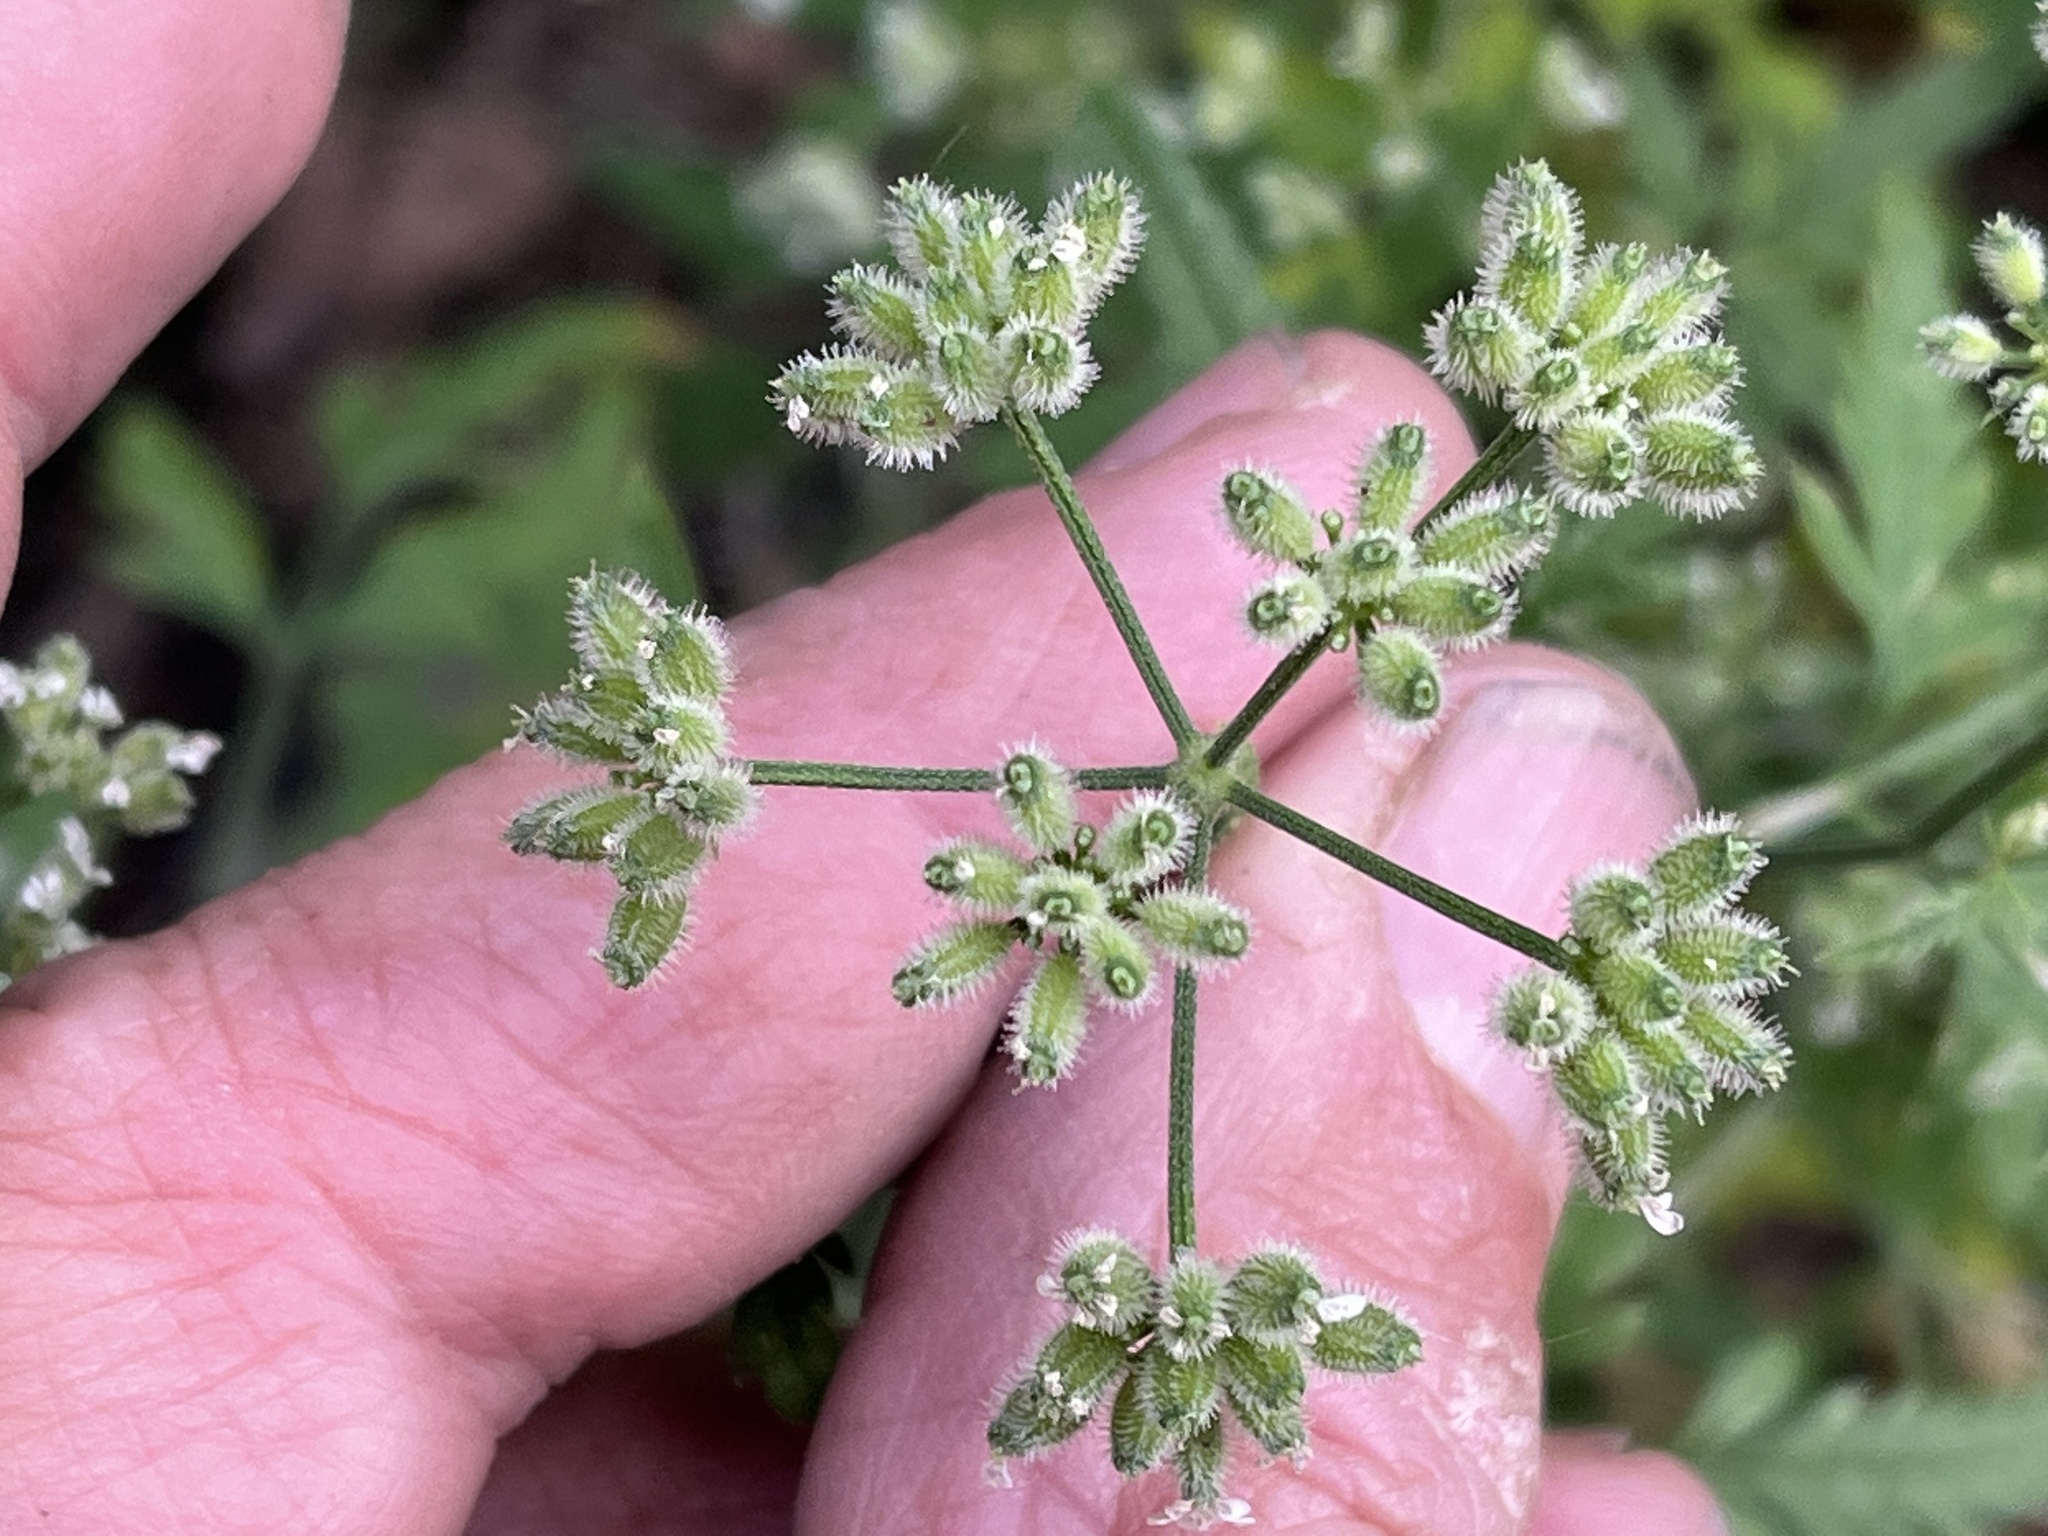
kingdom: Plantae
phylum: Tracheophyta
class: Magnoliopsida
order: Apiales
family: Apiaceae
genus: Torilis
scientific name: Torilis arvensis
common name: Spreading hedge-parsley
